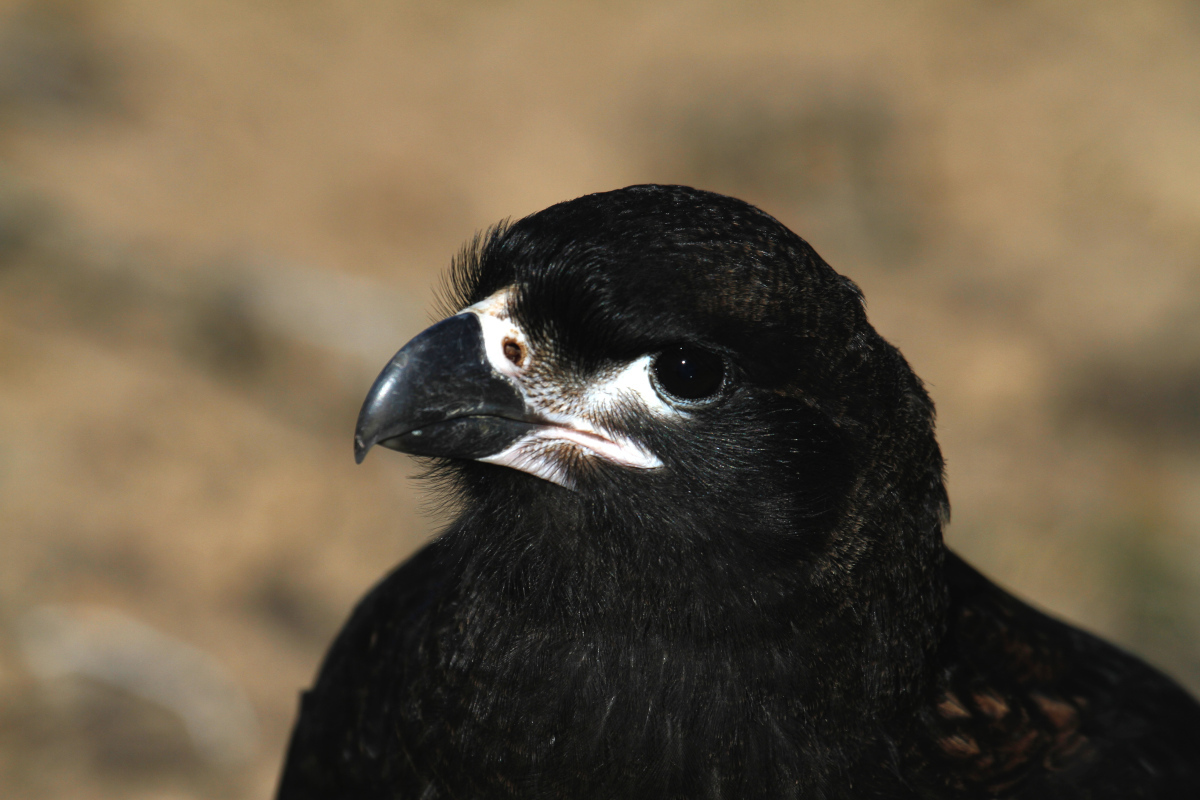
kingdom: Animalia
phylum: Chordata
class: Aves
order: Falconiformes
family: Falconidae
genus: Daptrius
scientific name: Daptrius
